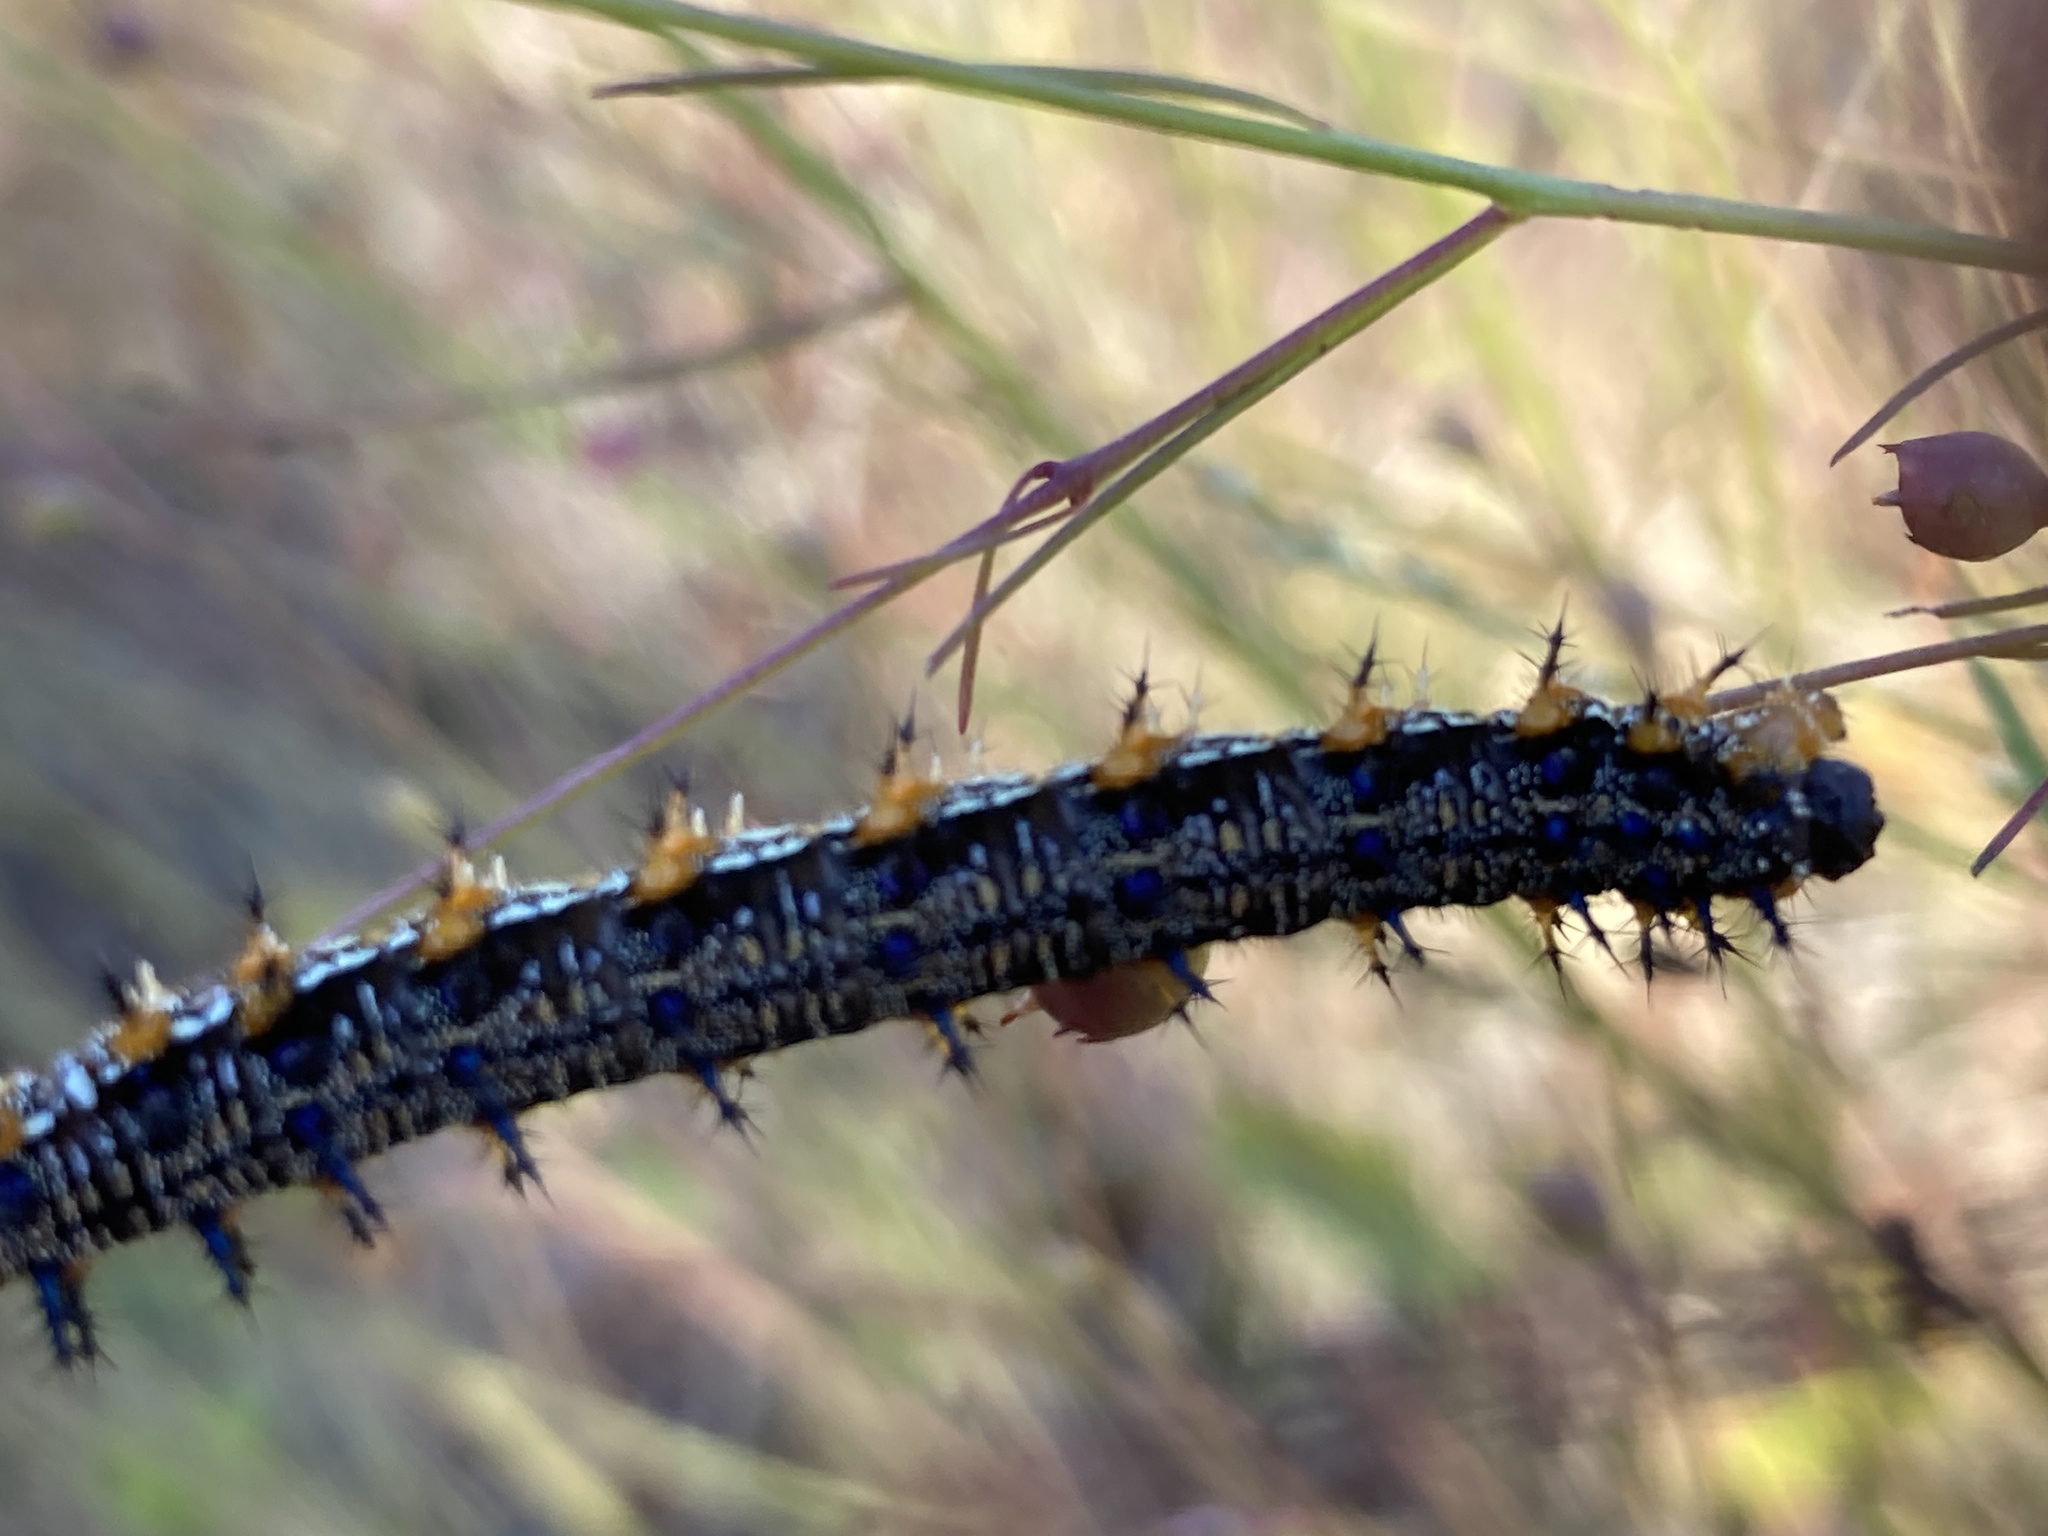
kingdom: Animalia
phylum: Arthropoda
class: Insecta
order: Lepidoptera
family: Nymphalidae
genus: Junonia
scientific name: Junonia coenia
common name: Common buckeye
